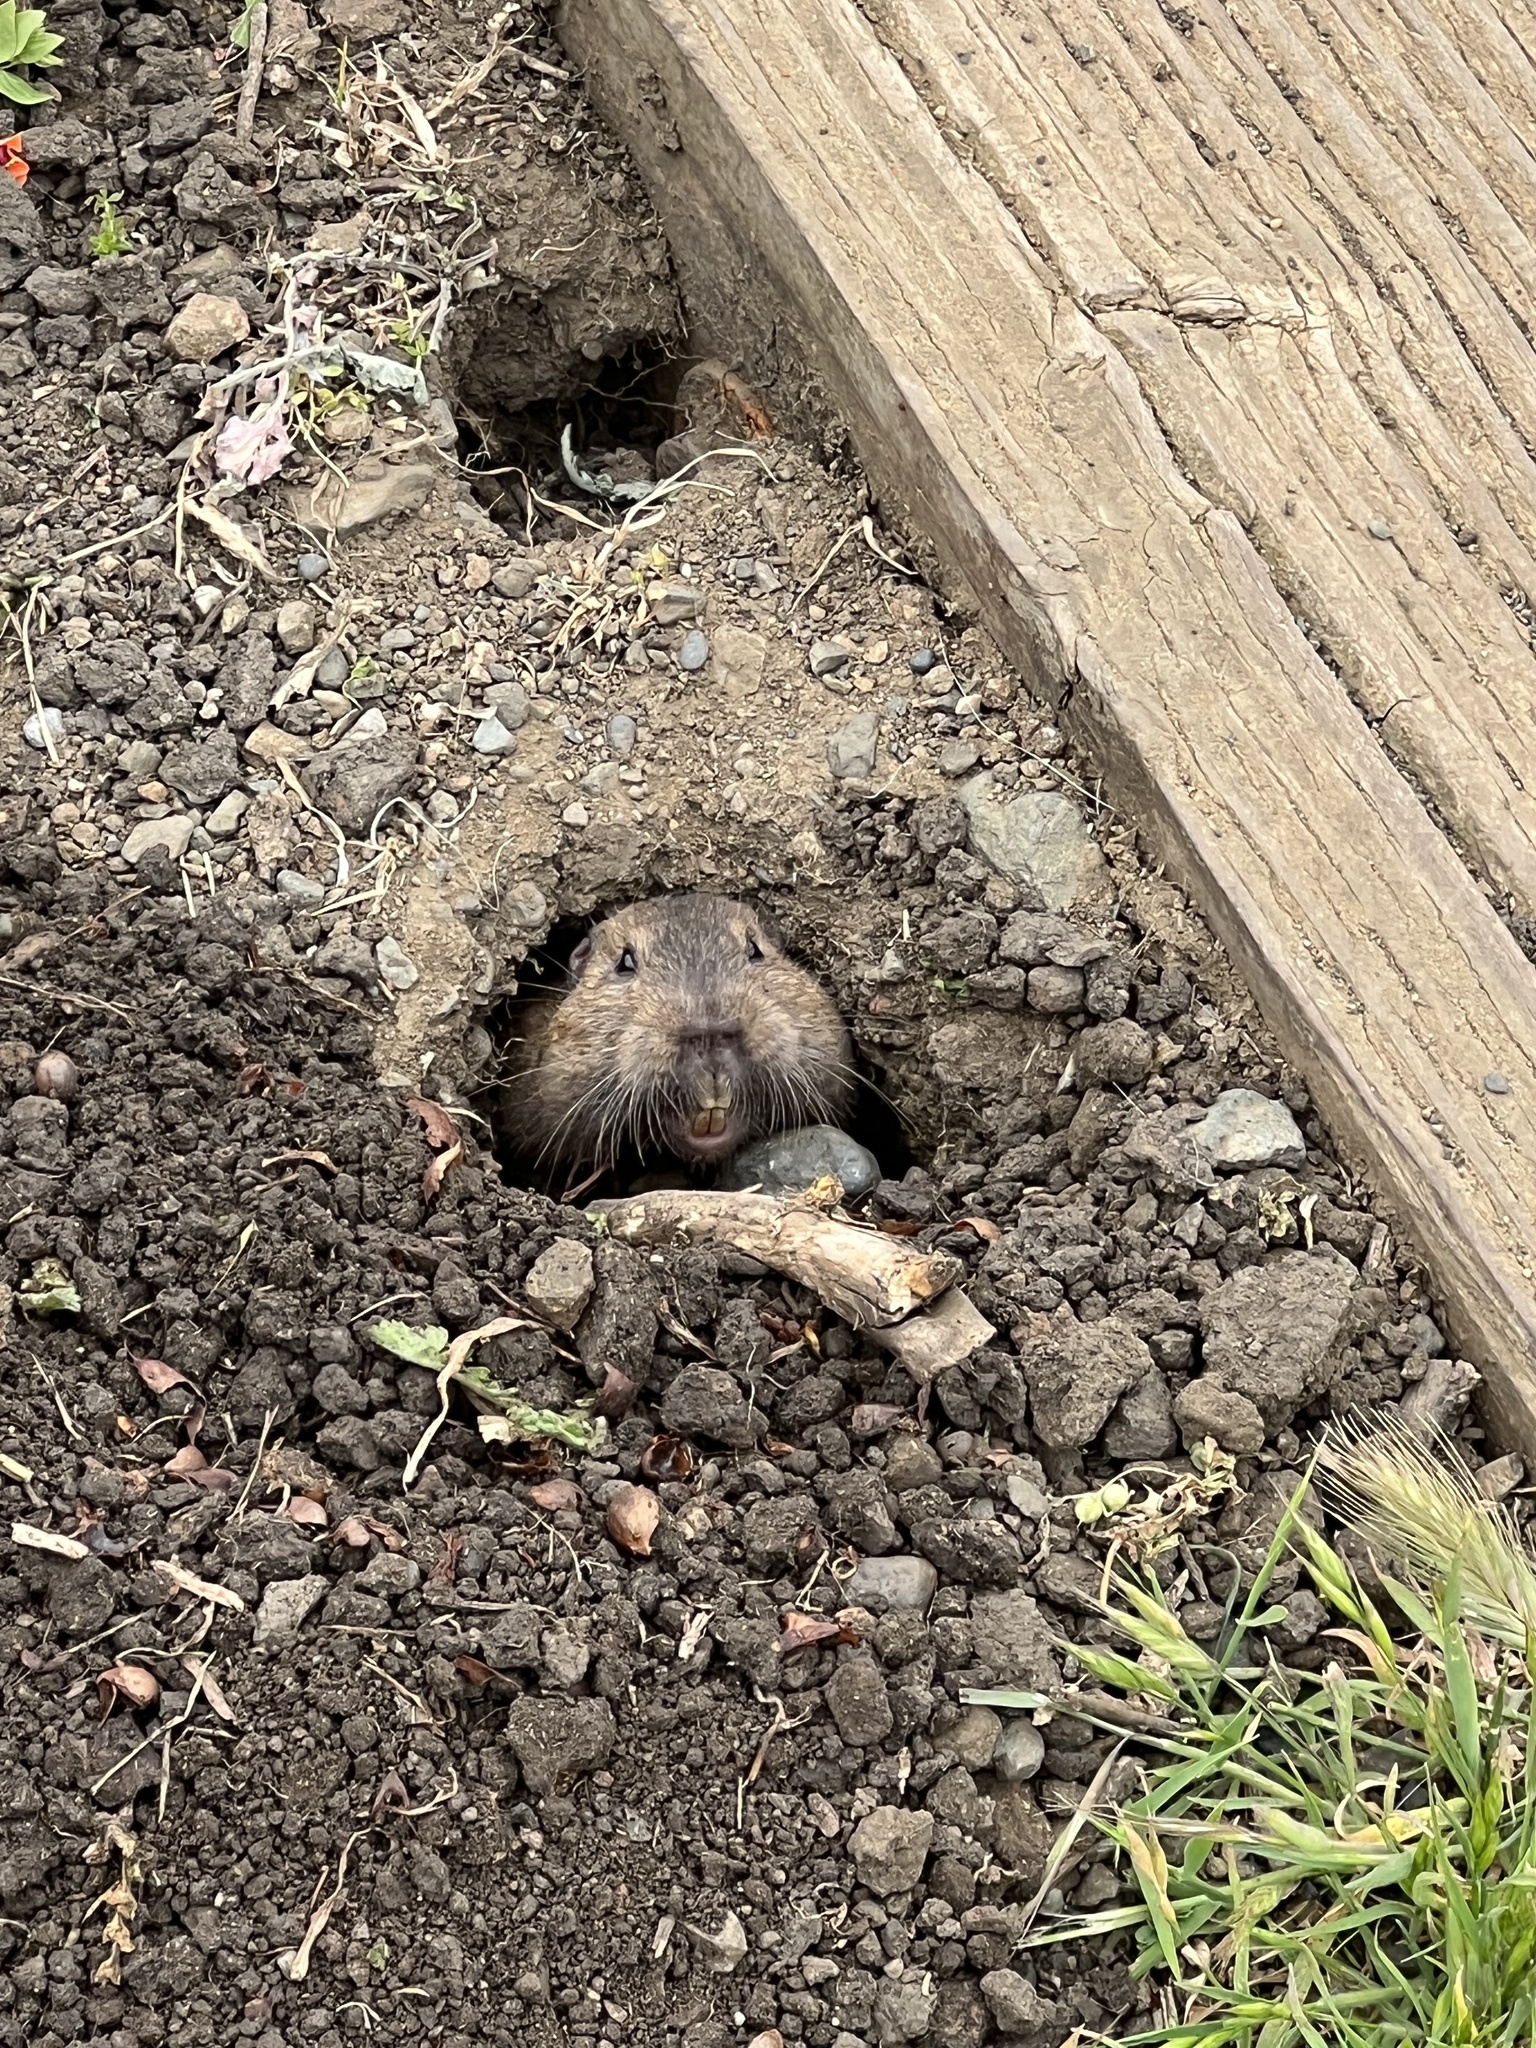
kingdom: Animalia
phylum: Chordata
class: Mammalia
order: Rodentia
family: Geomyidae
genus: Thomomys
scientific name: Thomomys bottae
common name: Botta's pocket gopher
